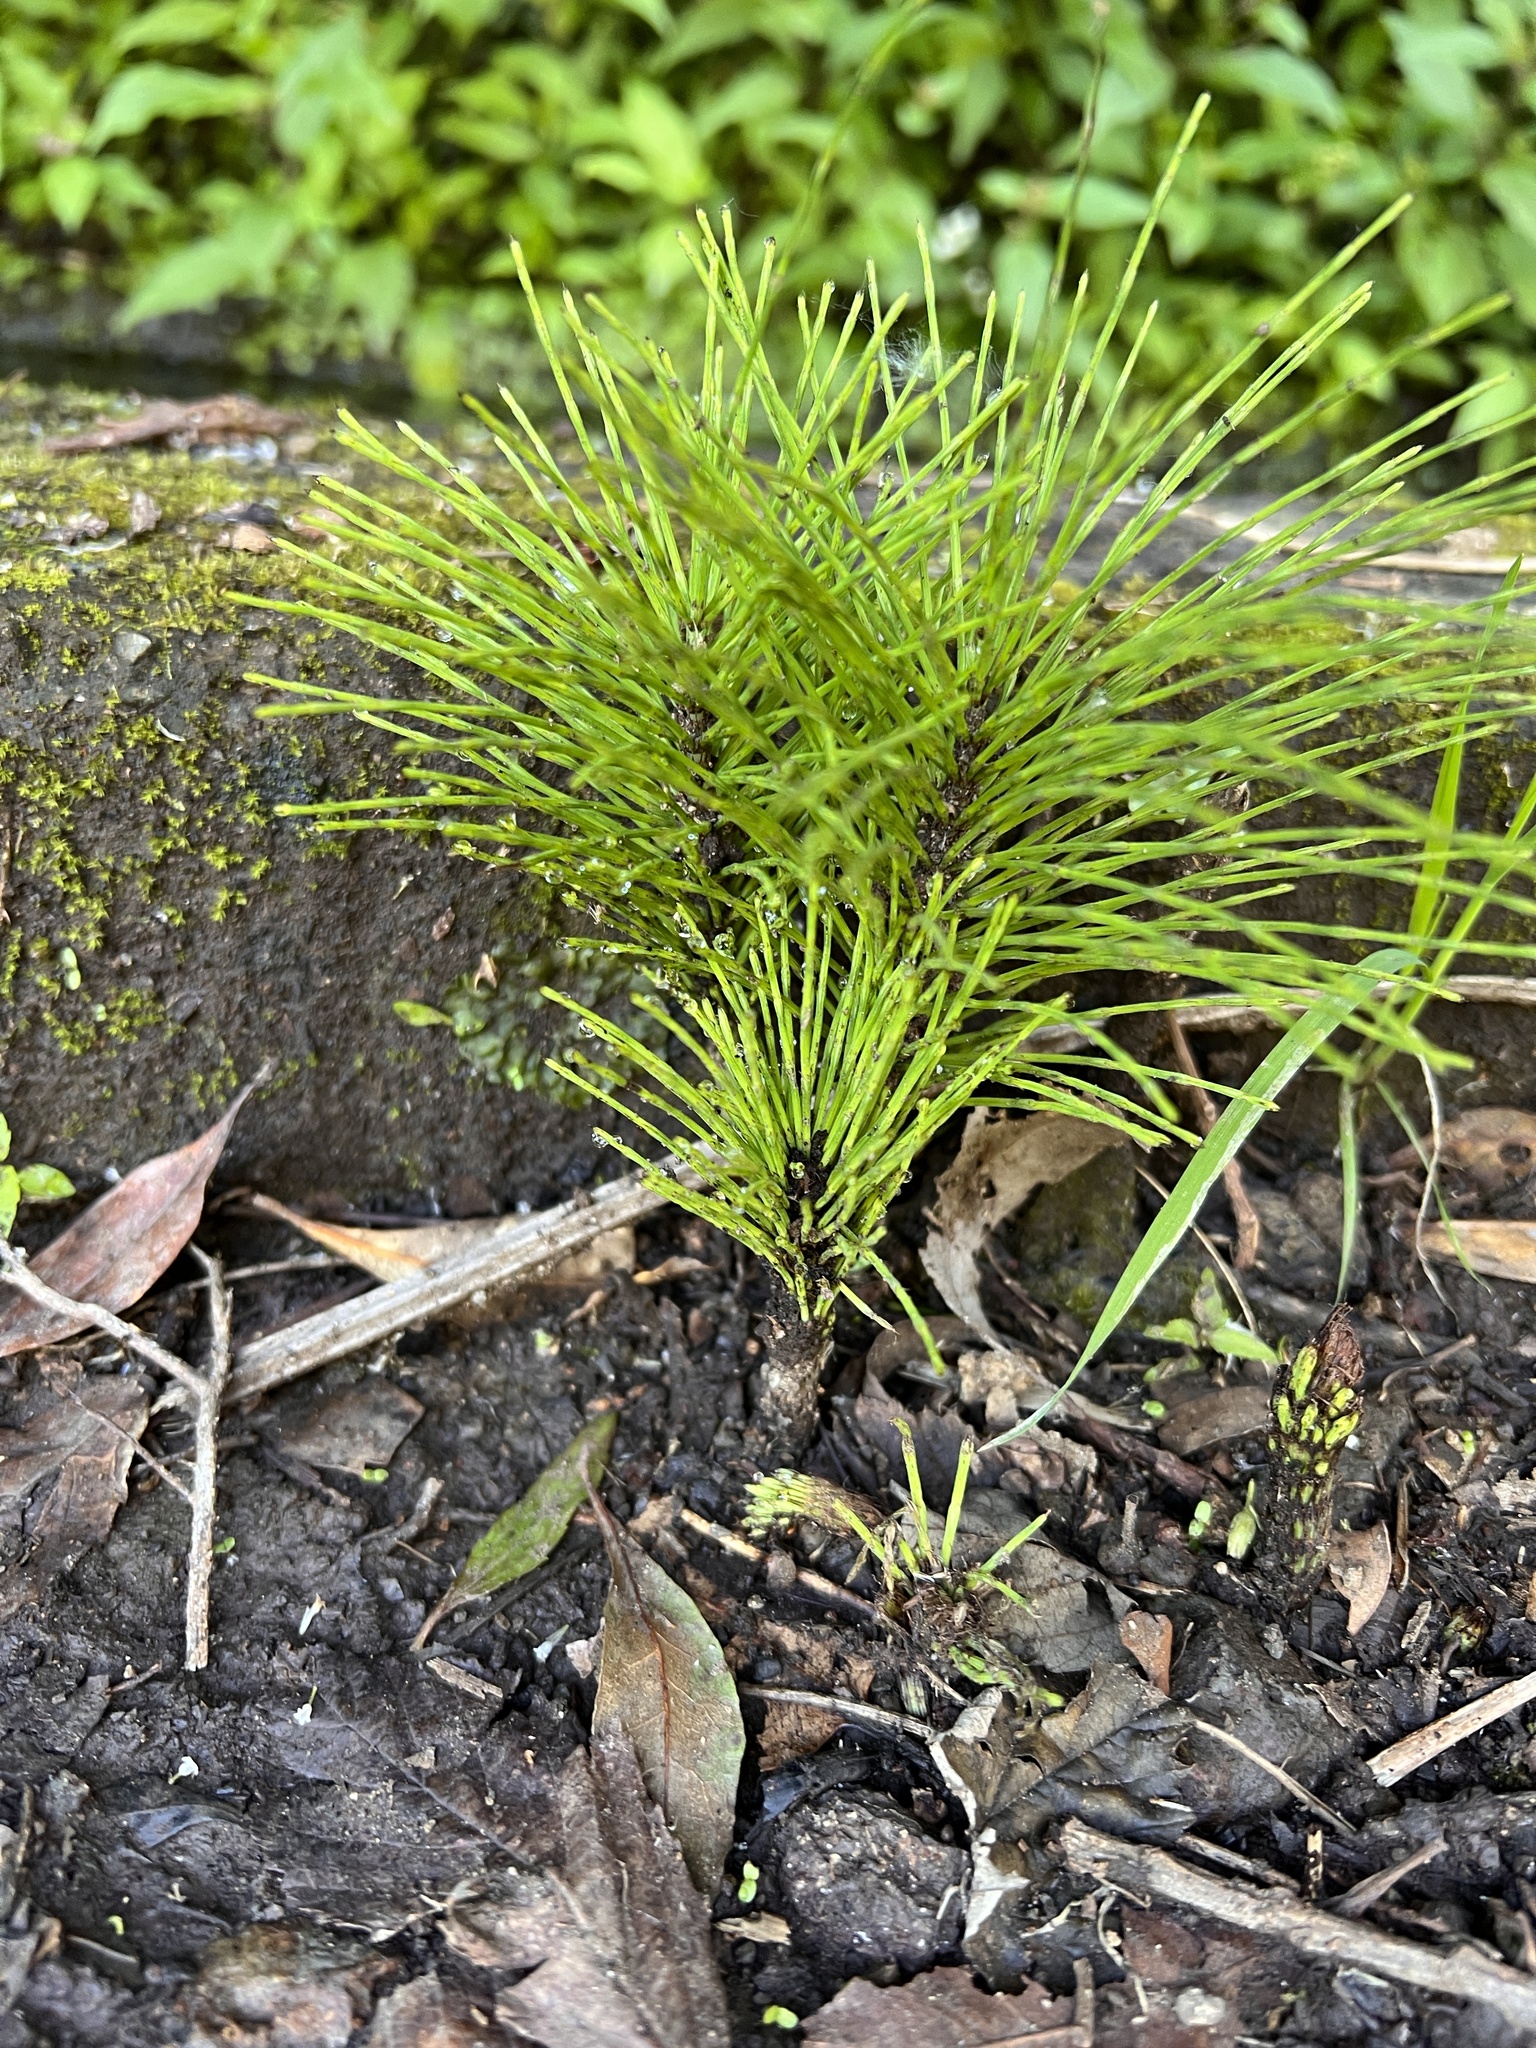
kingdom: Plantae
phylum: Tracheophyta
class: Polypodiopsida
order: Equisetales
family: Equisetaceae
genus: Equisetum
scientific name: Equisetum telmateia
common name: Great horsetail
